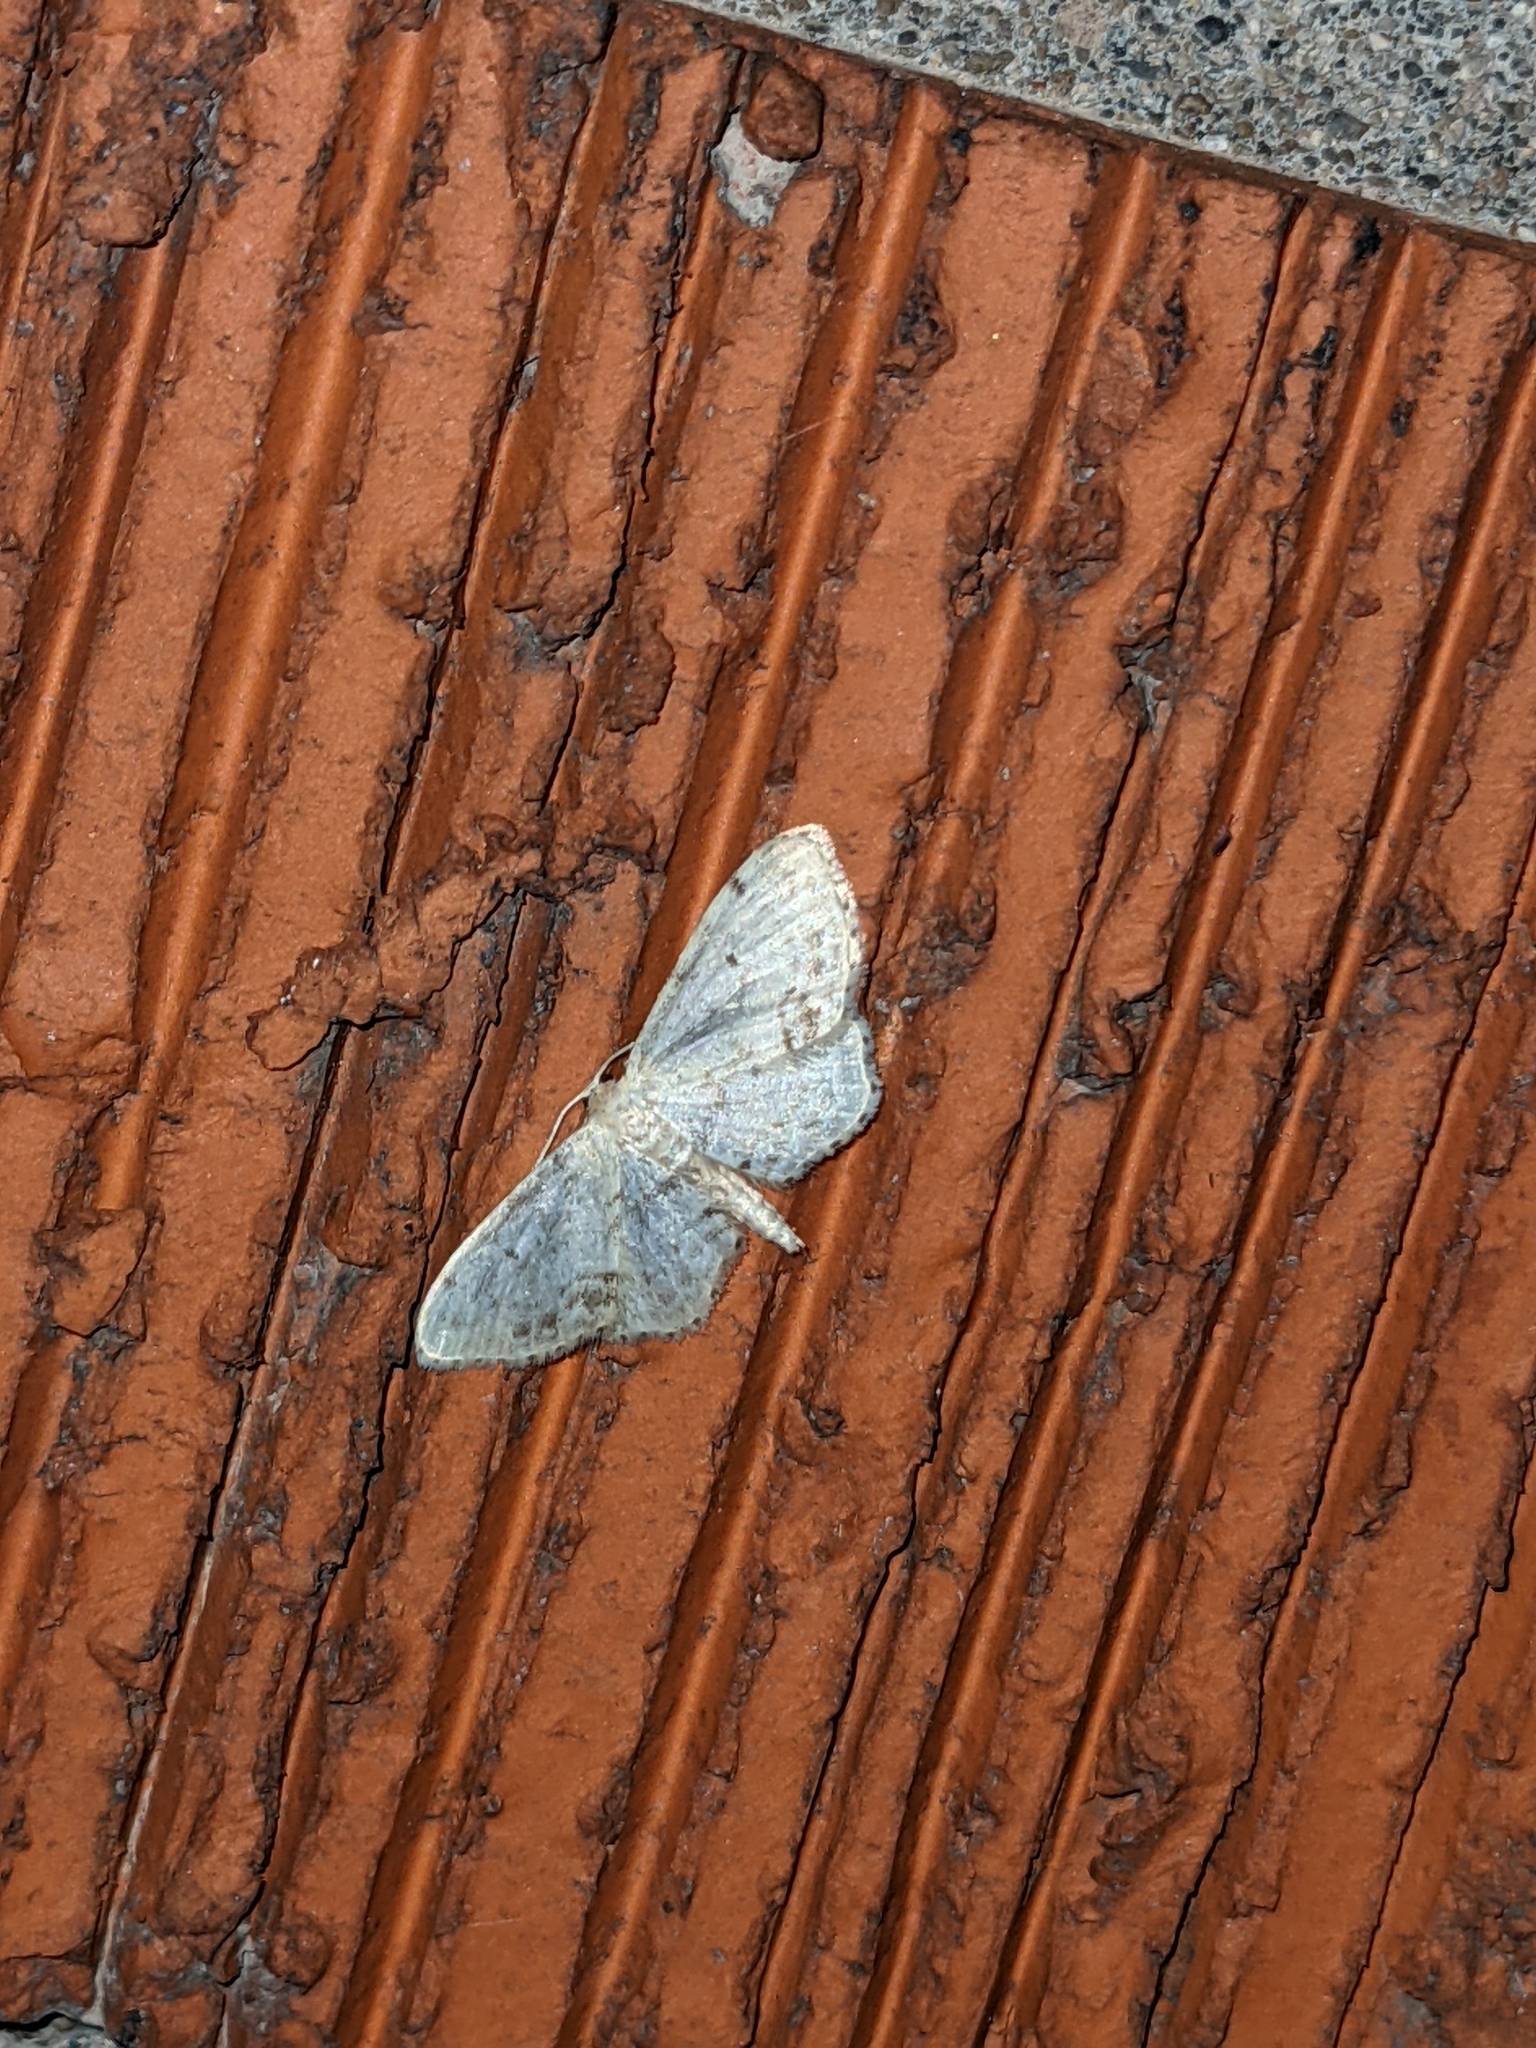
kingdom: Animalia
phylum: Arthropoda
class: Insecta
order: Lepidoptera
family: Geometridae
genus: Idaea
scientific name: Idaea dimidiata
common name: Single-dotted wave
